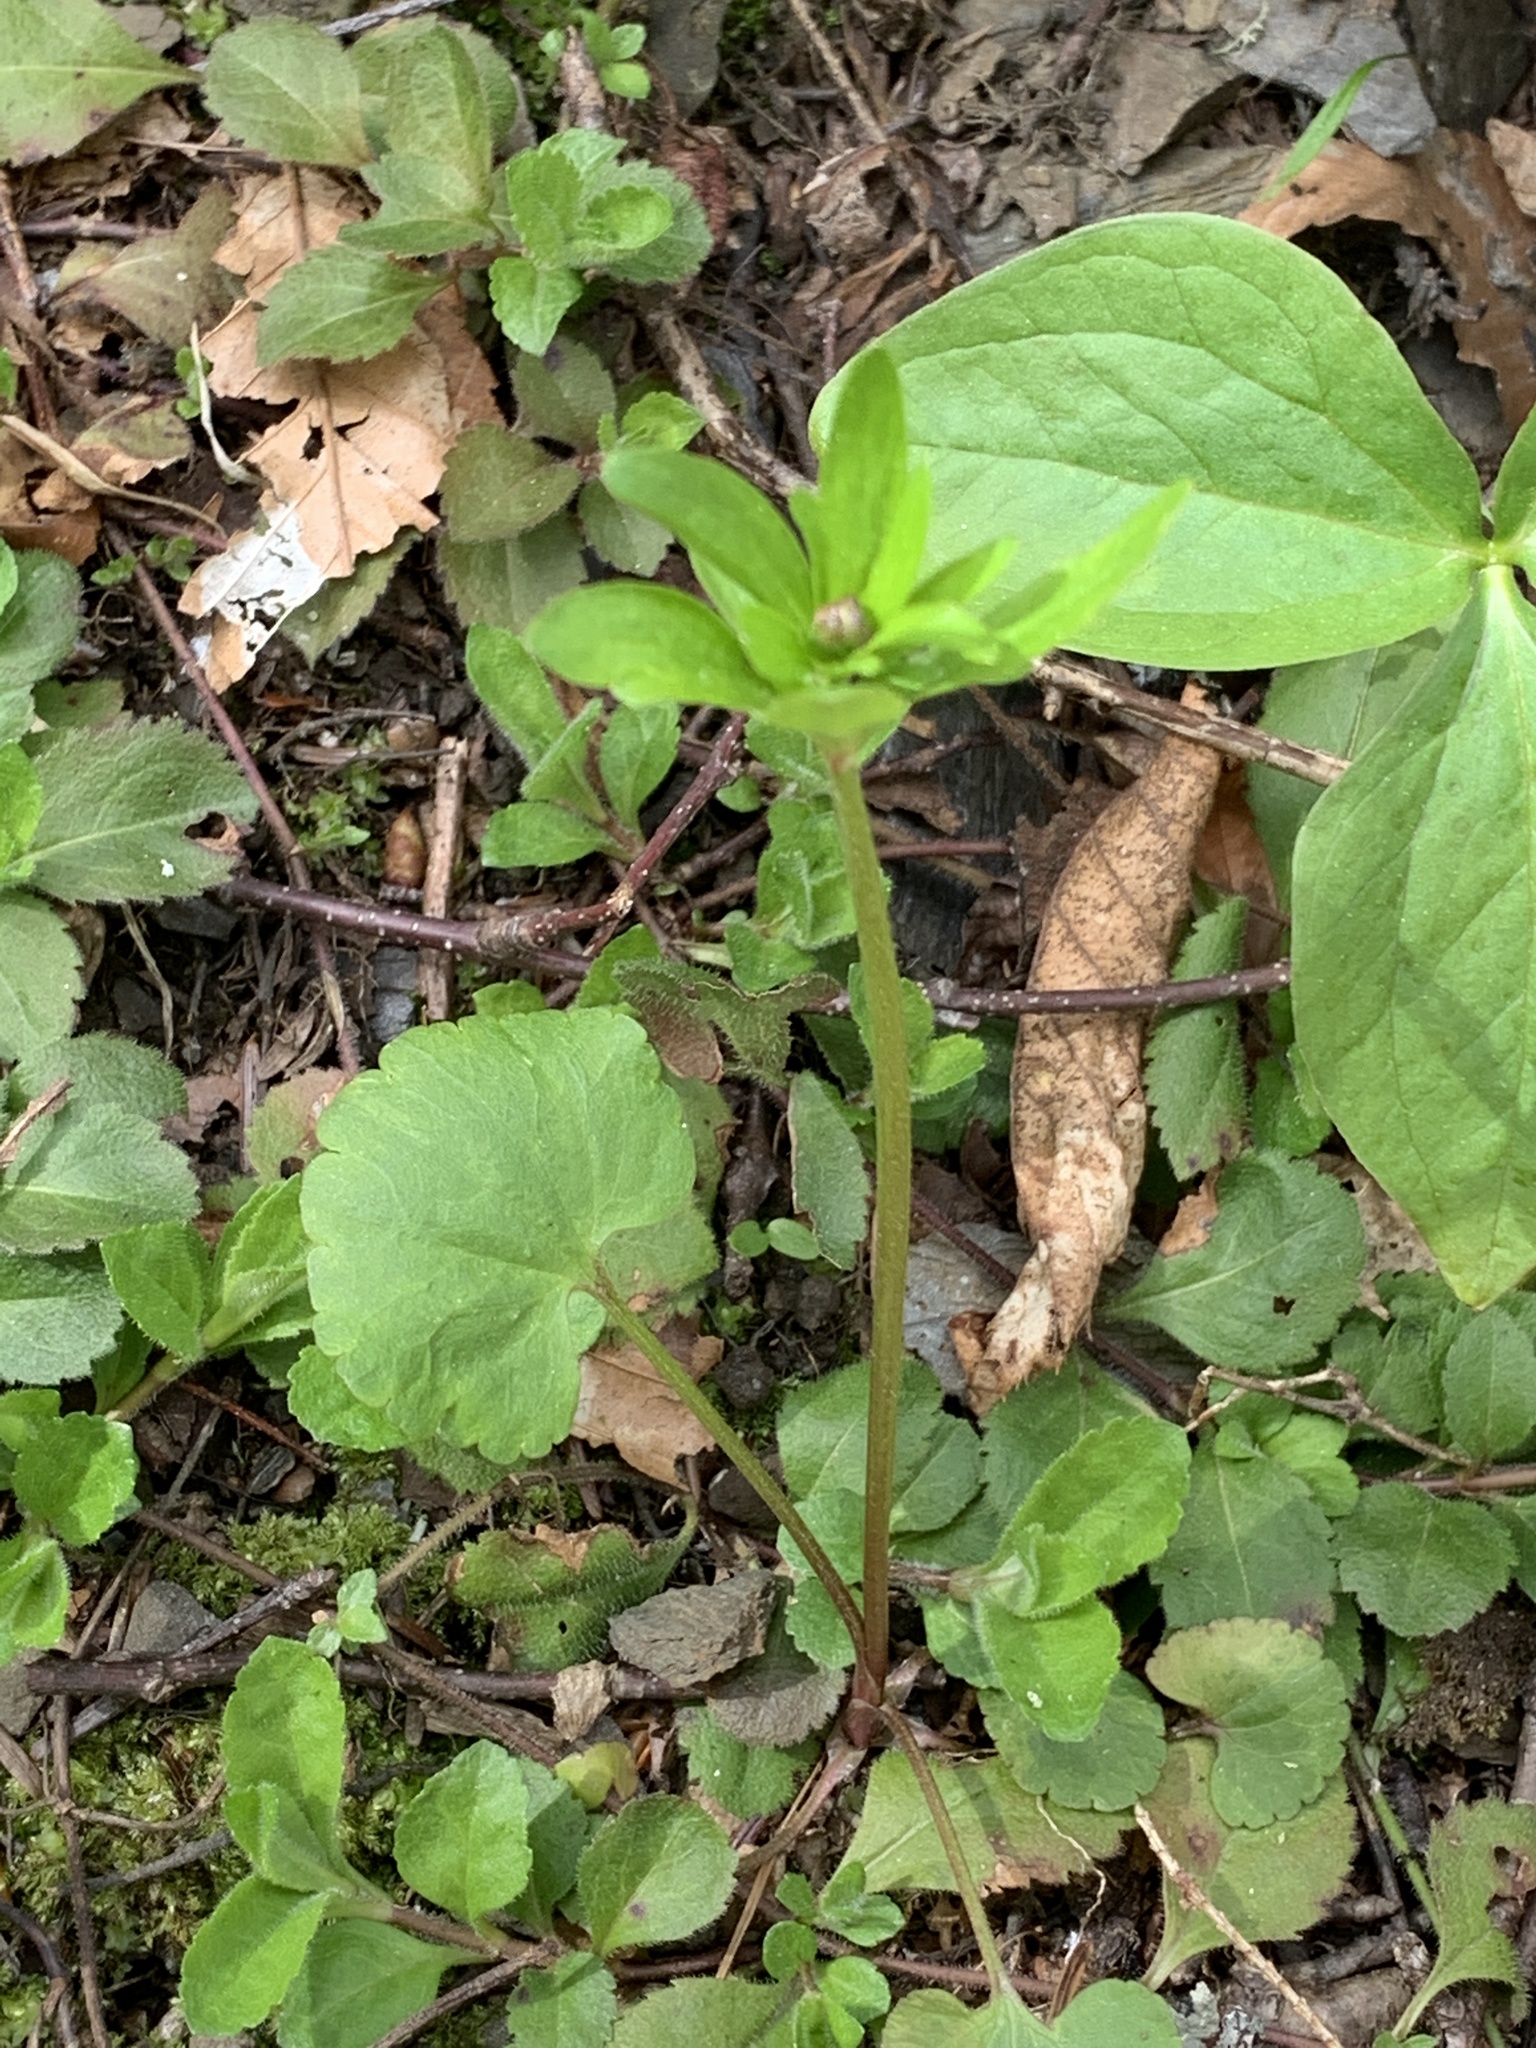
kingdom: Plantae
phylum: Tracheophyta
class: Magnoliopsida
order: Ranunculales
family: Ranunculaceae
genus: Ranunculus
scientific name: Ranunculus abortivus
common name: Early wood buttercup
